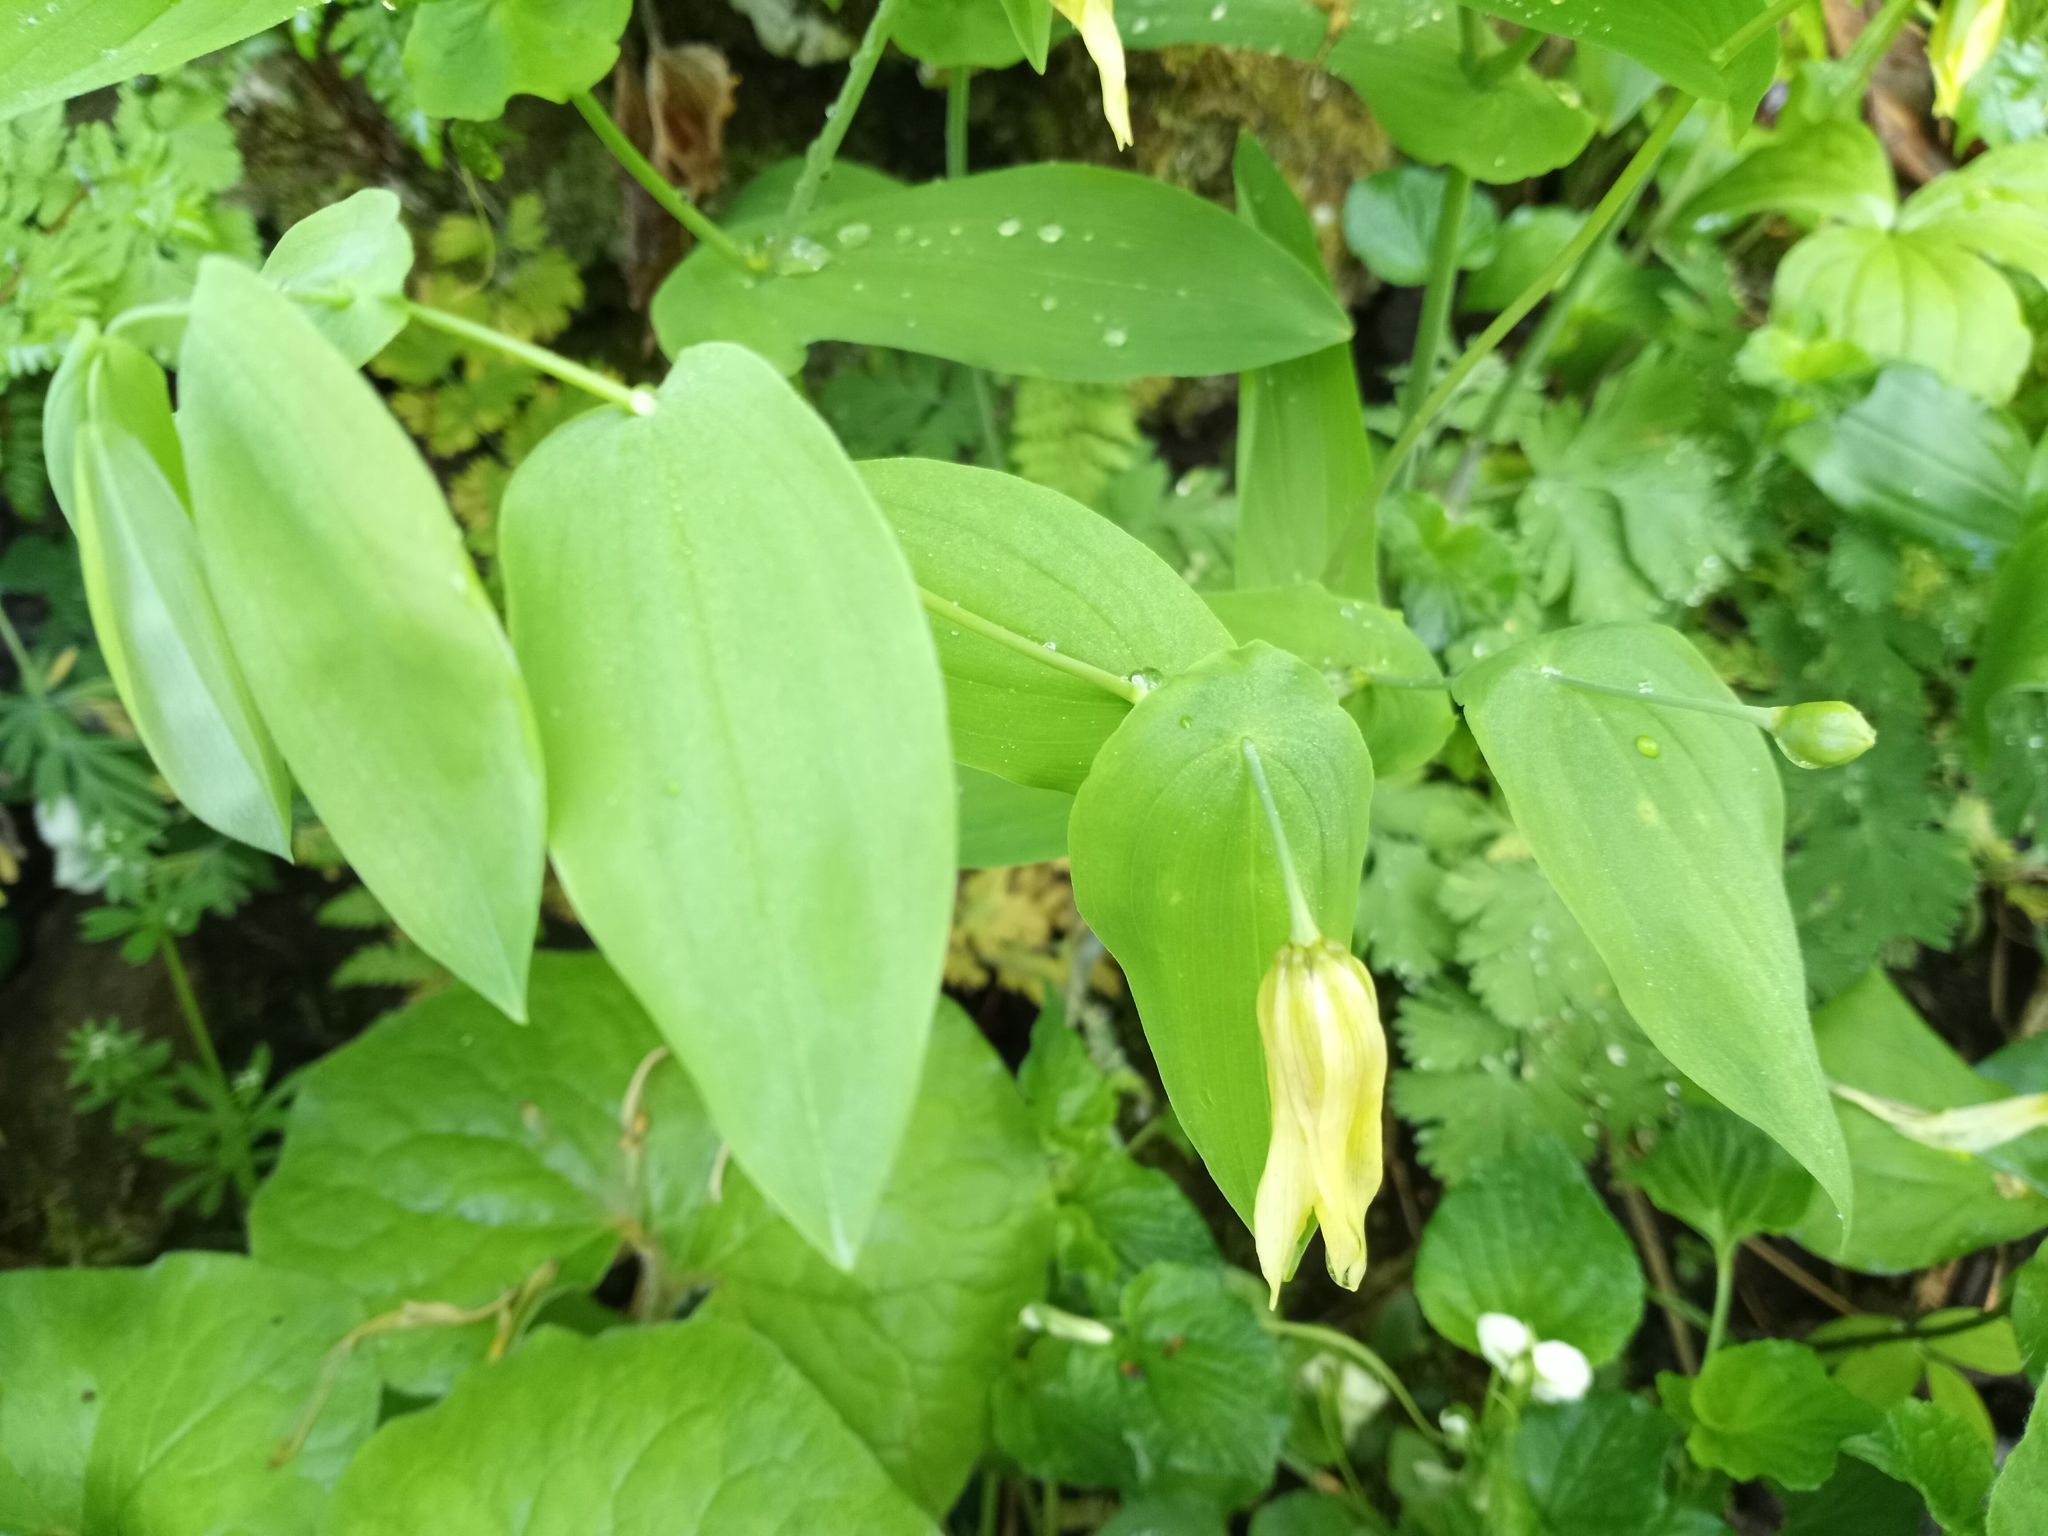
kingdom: Plantae
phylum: Tracheophyta
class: Liliopsida
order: Liliales
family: Colchicaceae
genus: Uvularia
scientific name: Uvularia grandiflora
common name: Bellwort
